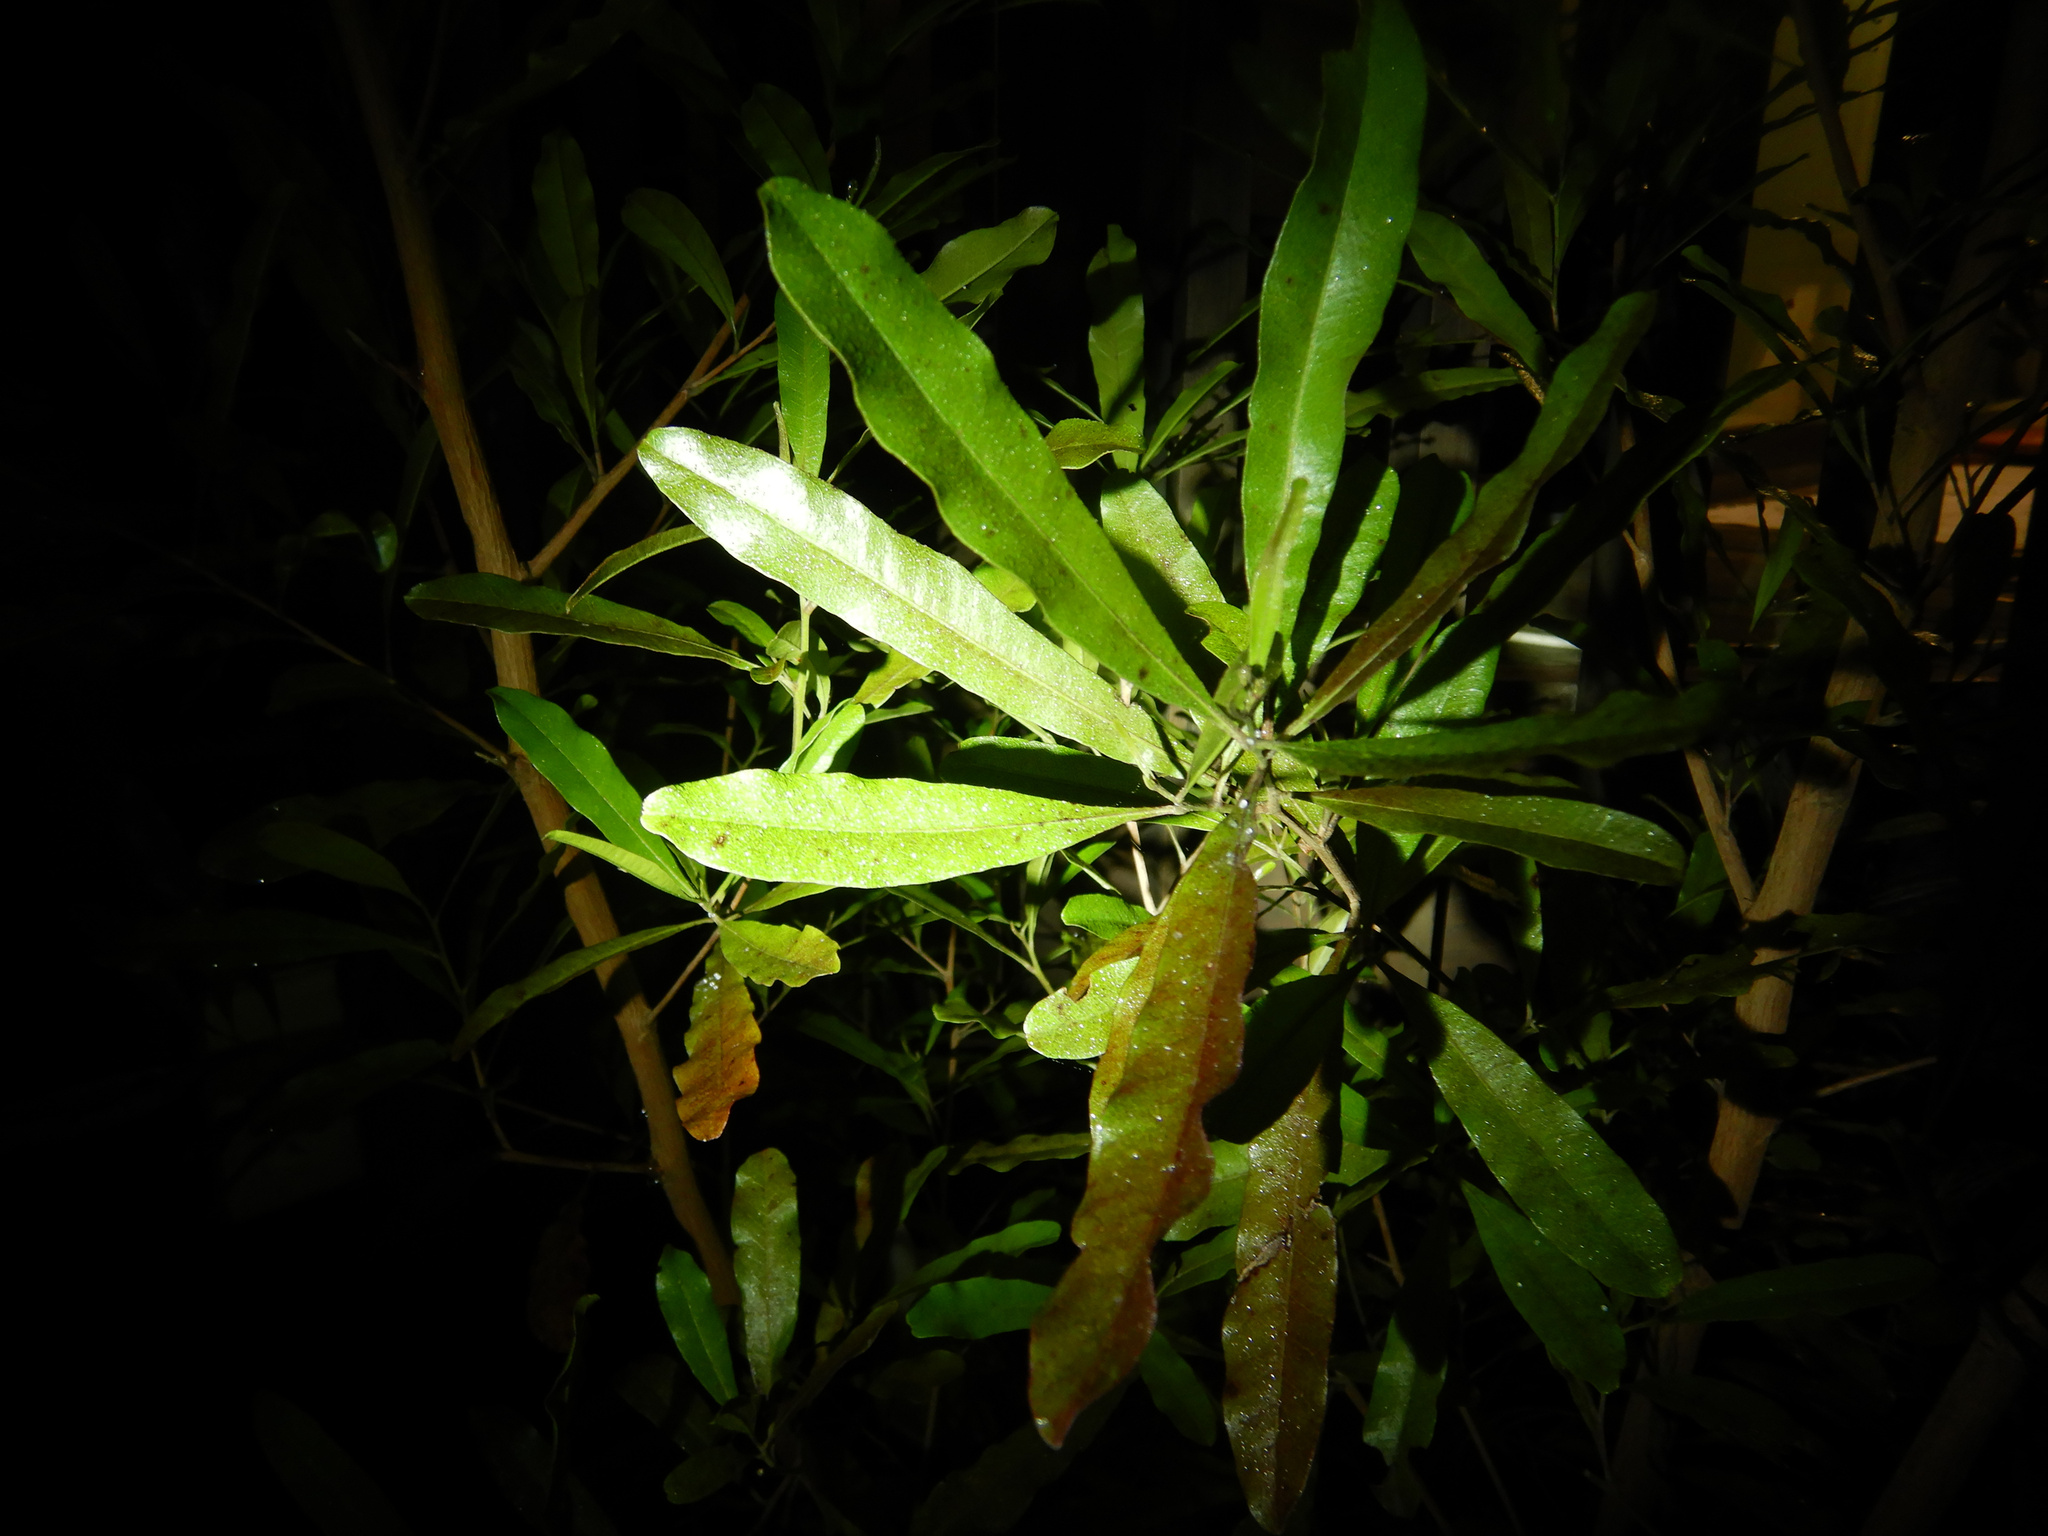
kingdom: Plantae
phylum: Tracheophyta
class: Magnoliopsida
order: Sapindales
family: Sapindaceae
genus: Dodonaea
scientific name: Dodonaea viscosa
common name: Hopbush
